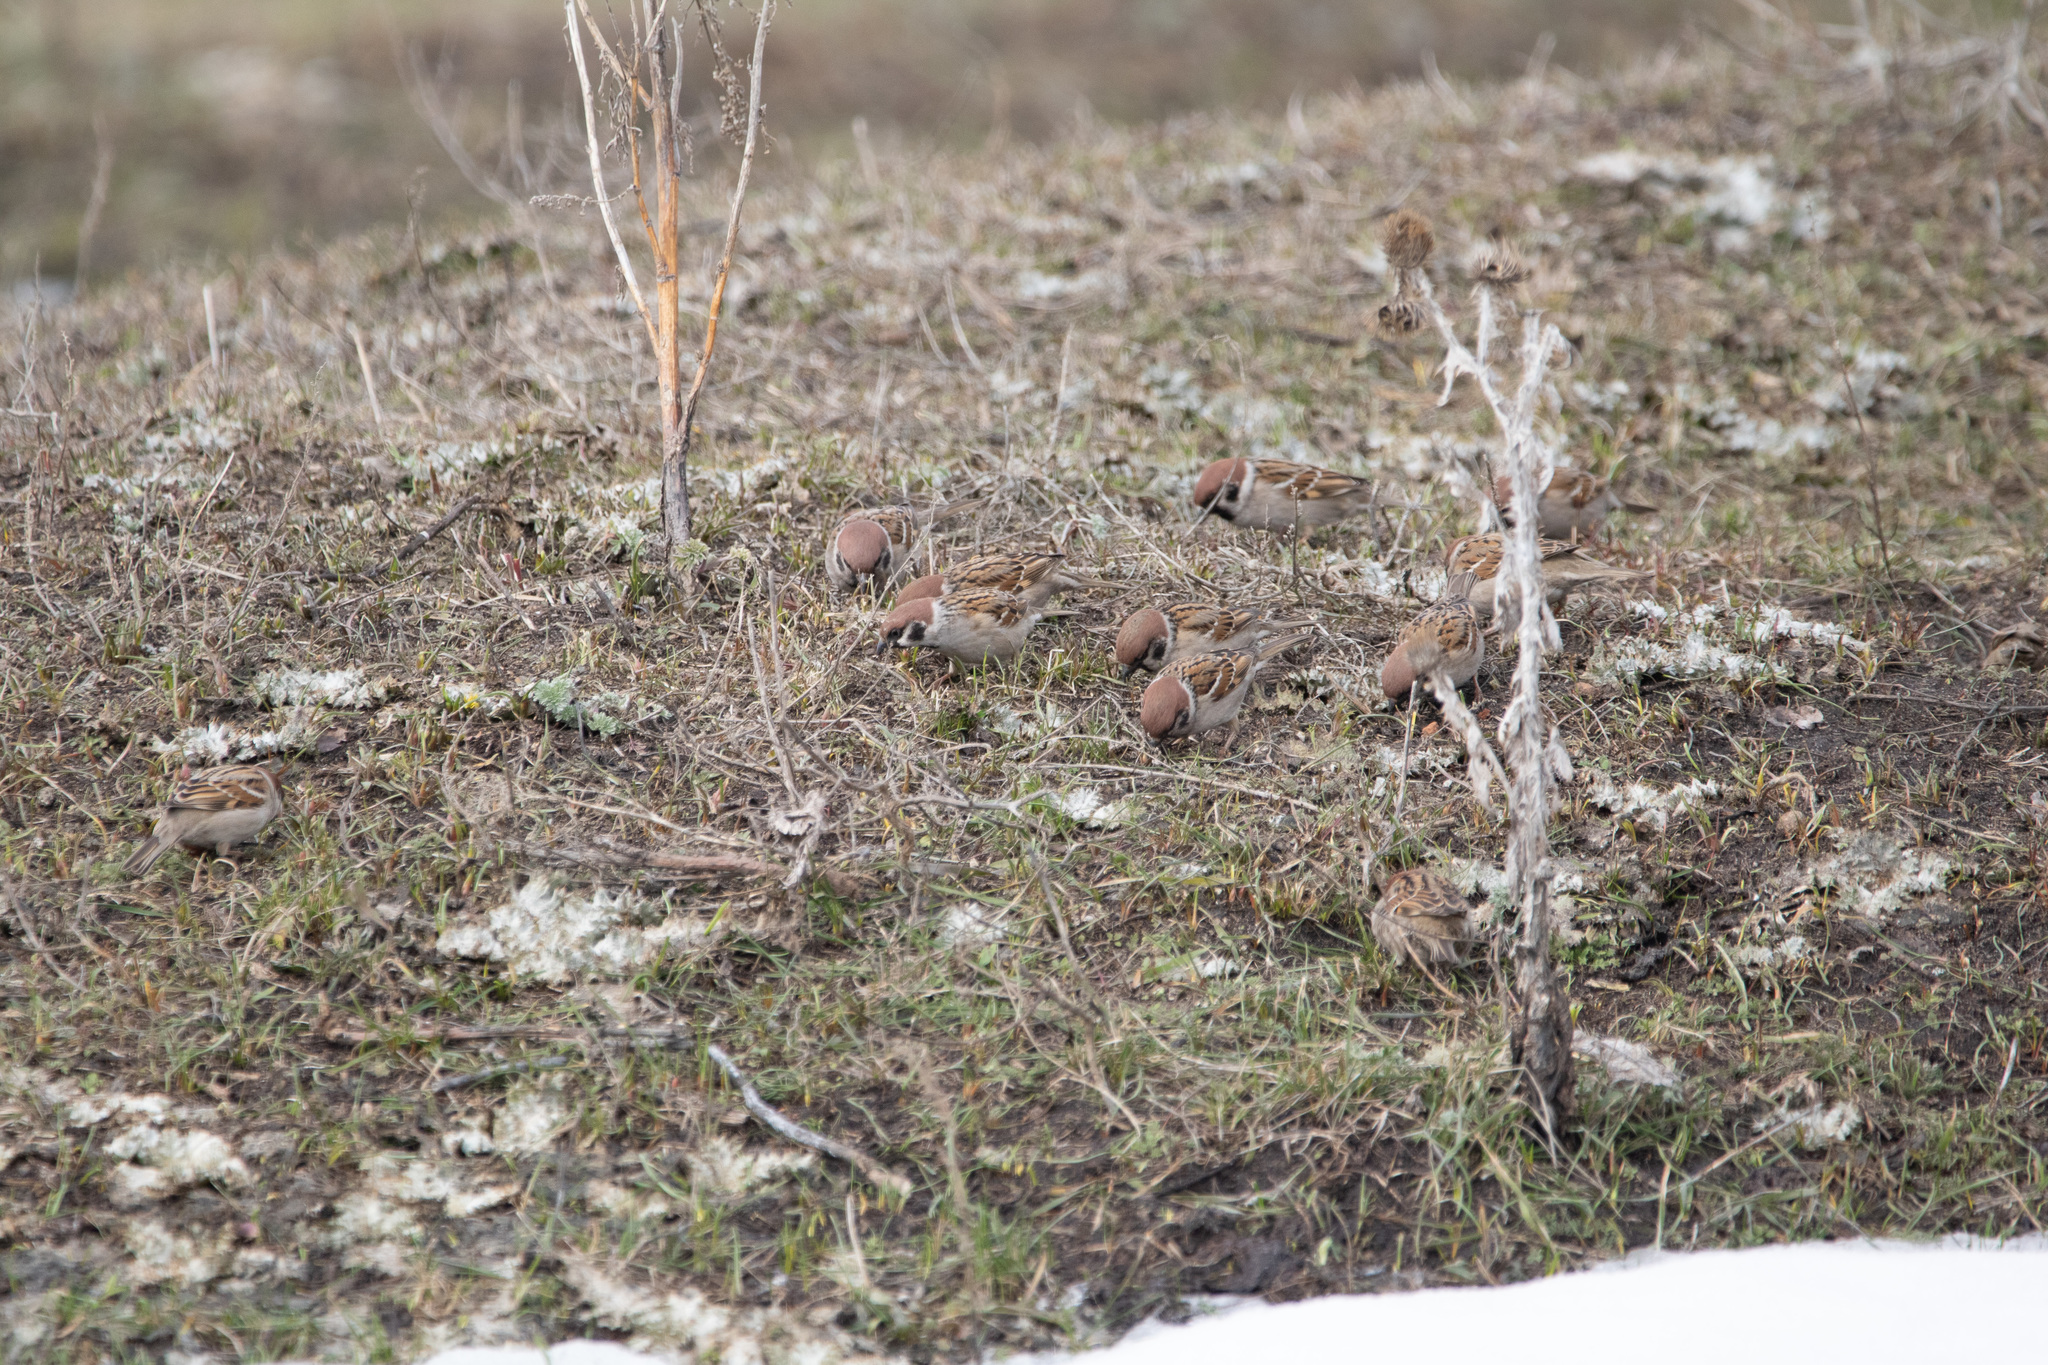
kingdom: Animalia
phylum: Chordata
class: Aves
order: Passeriformes
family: Passeridae
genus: Passer
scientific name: Passer montanus
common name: Eurasian tree sparrow
